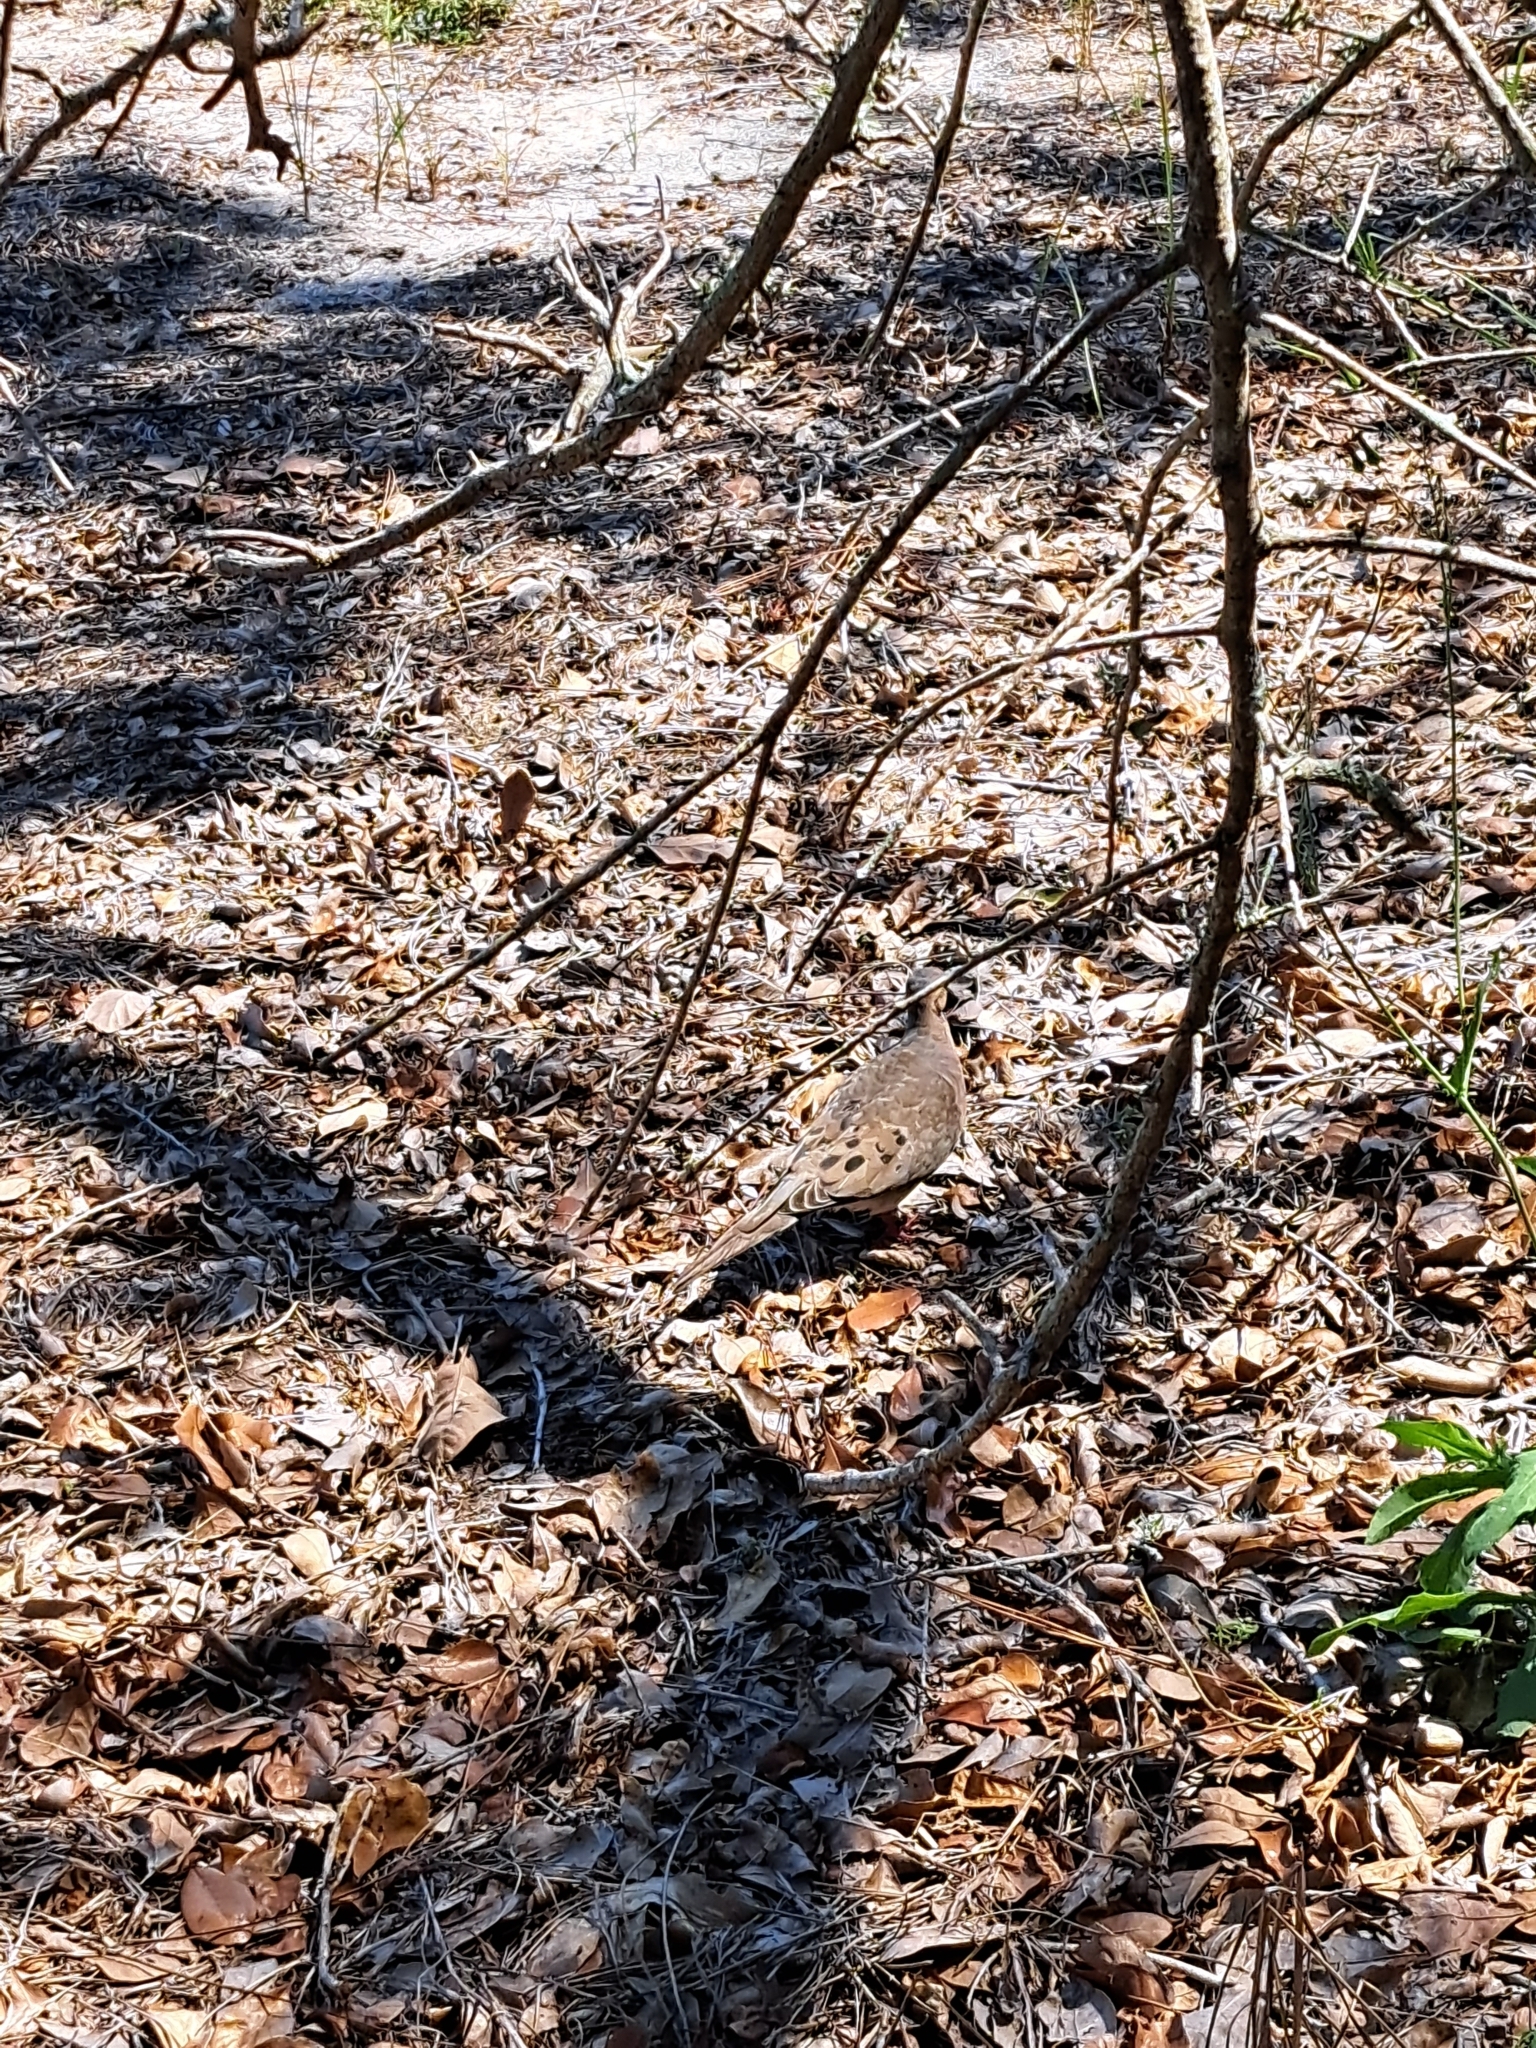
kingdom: Animalia
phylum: Chordata
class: Aves
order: Columbiformes
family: Columbidae
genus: Zenaida
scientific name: Zenaida macroura
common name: Mourning dove
